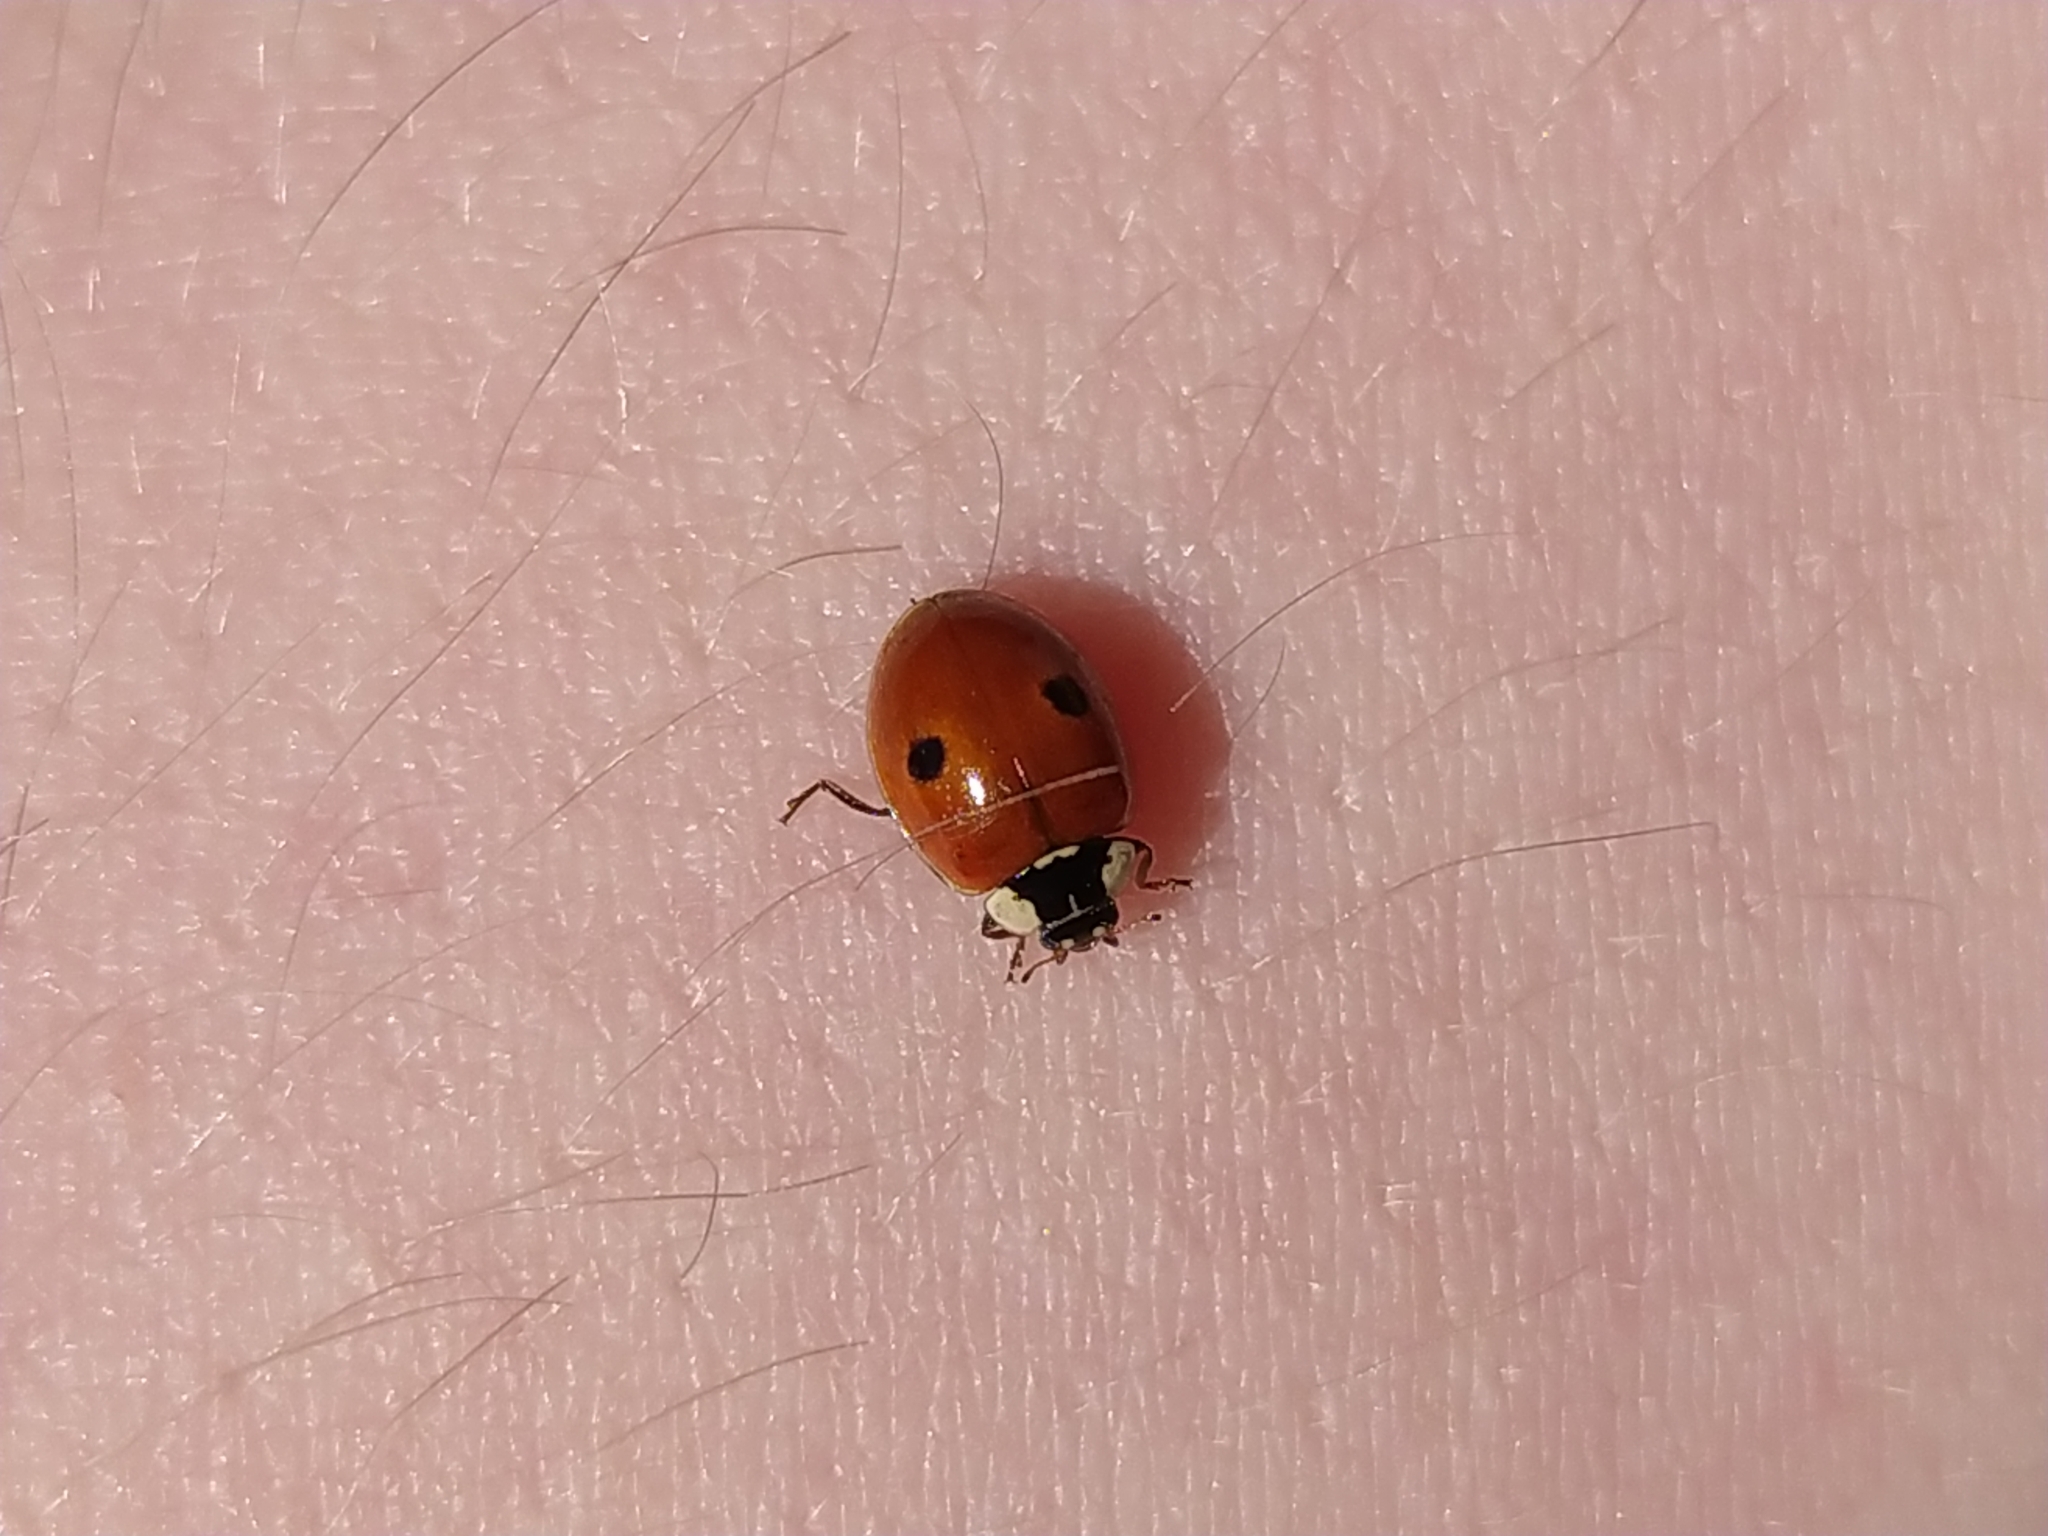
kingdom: Animalia
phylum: Arthropoda
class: Insecta
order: Coleoptera
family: Coccinellidae
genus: Adalia
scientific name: Adalia bipunctata
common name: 2-spot ladybird
